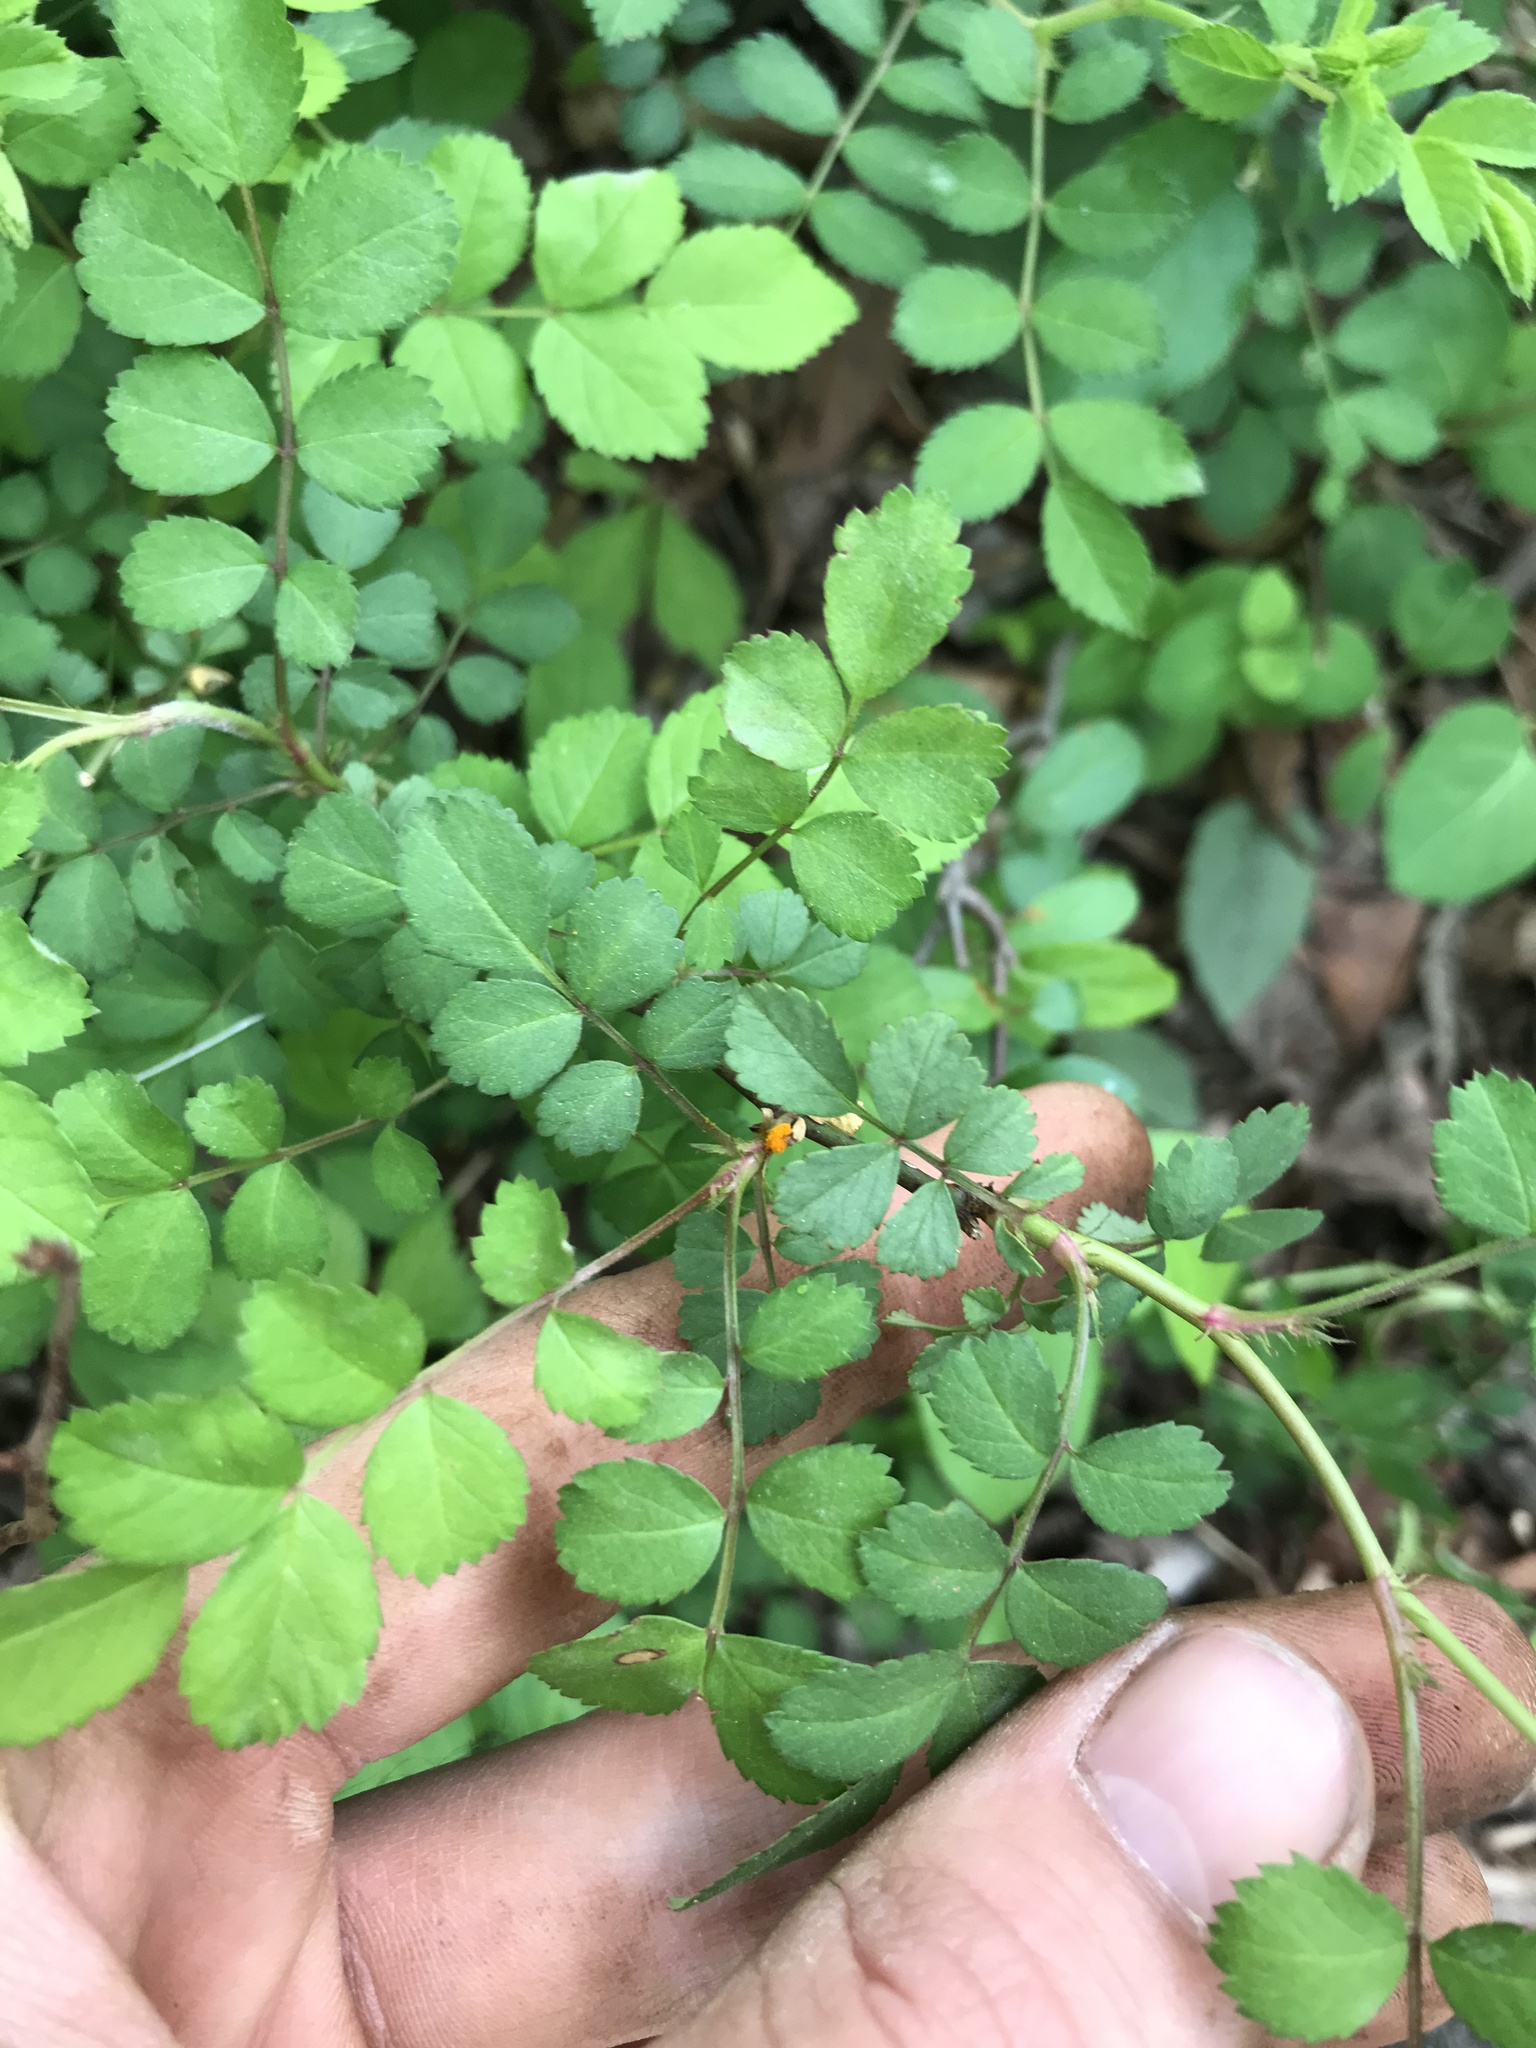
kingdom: Plantae
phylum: Tracheophyta
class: Magnoliopsida
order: Rosales
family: Rosaceae
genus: Rosa
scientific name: Rosa multiflora
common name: Multiflora rose
